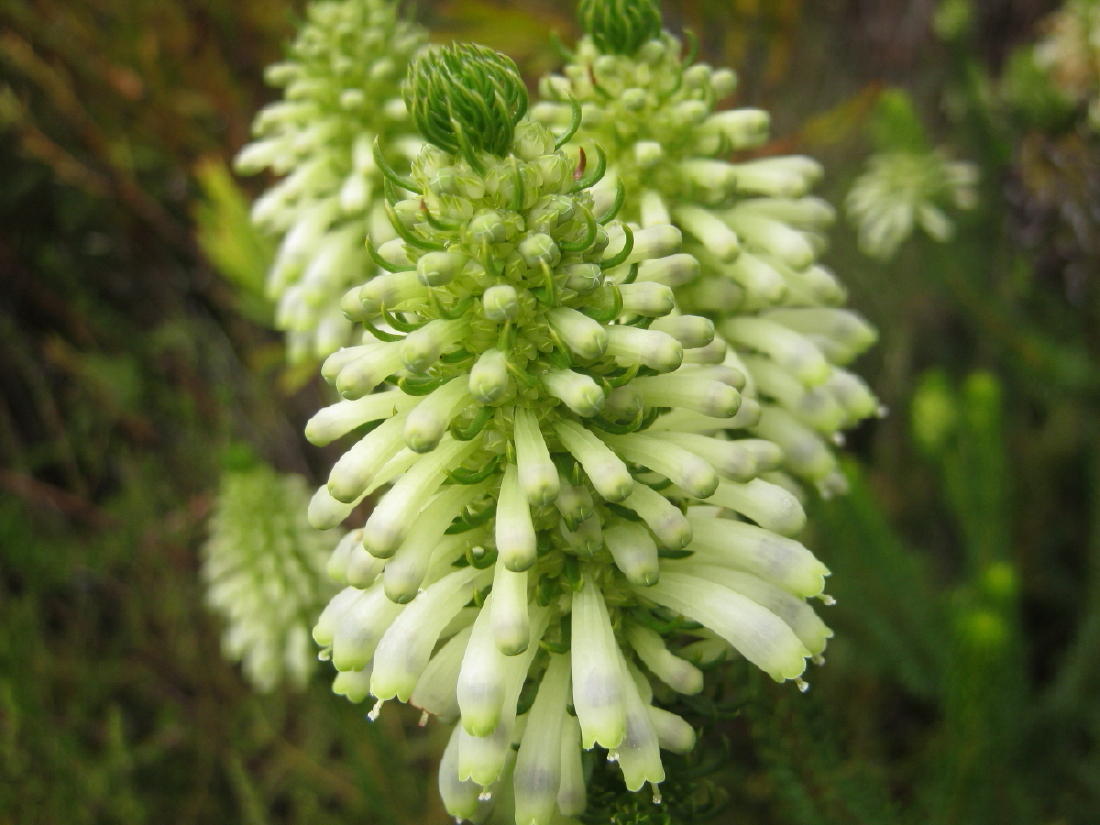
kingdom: Plantae
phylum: Tracheophyta
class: Magnoliopsida
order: Ericales
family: Ericaceae
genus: Erica
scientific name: Erica sessiliflora
